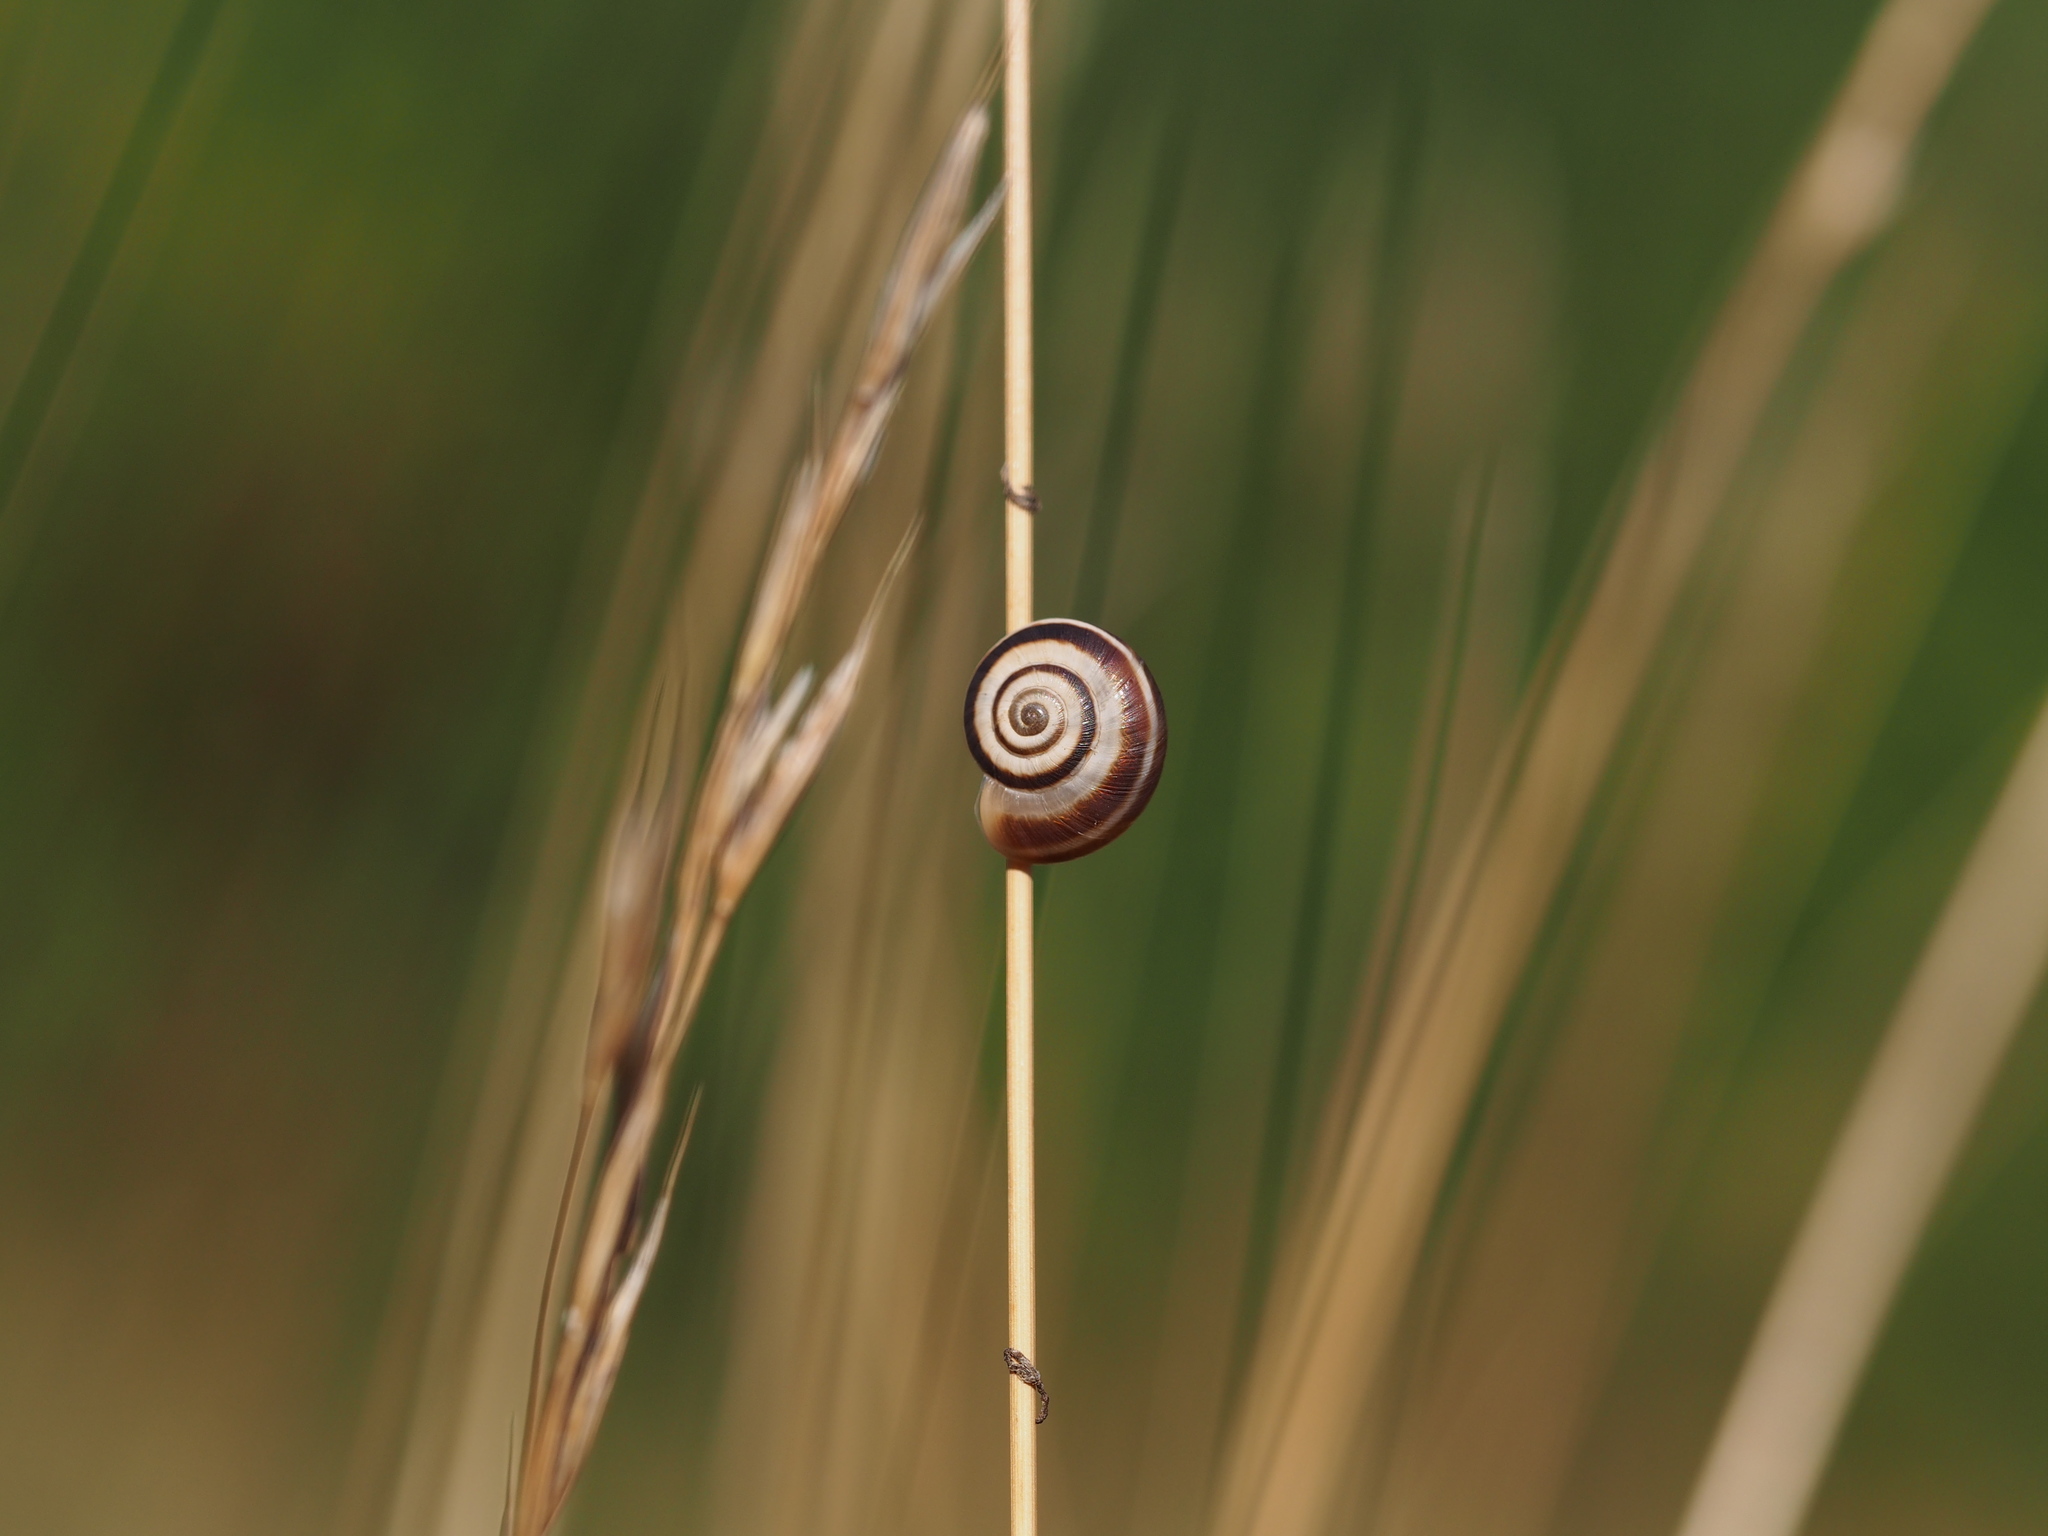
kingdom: Animalia
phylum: Mollusca
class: Gastropoda
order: Stylommatophora
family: Geomitridae
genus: Xerolenta
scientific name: Xerolenta obvia
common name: White heath snail
